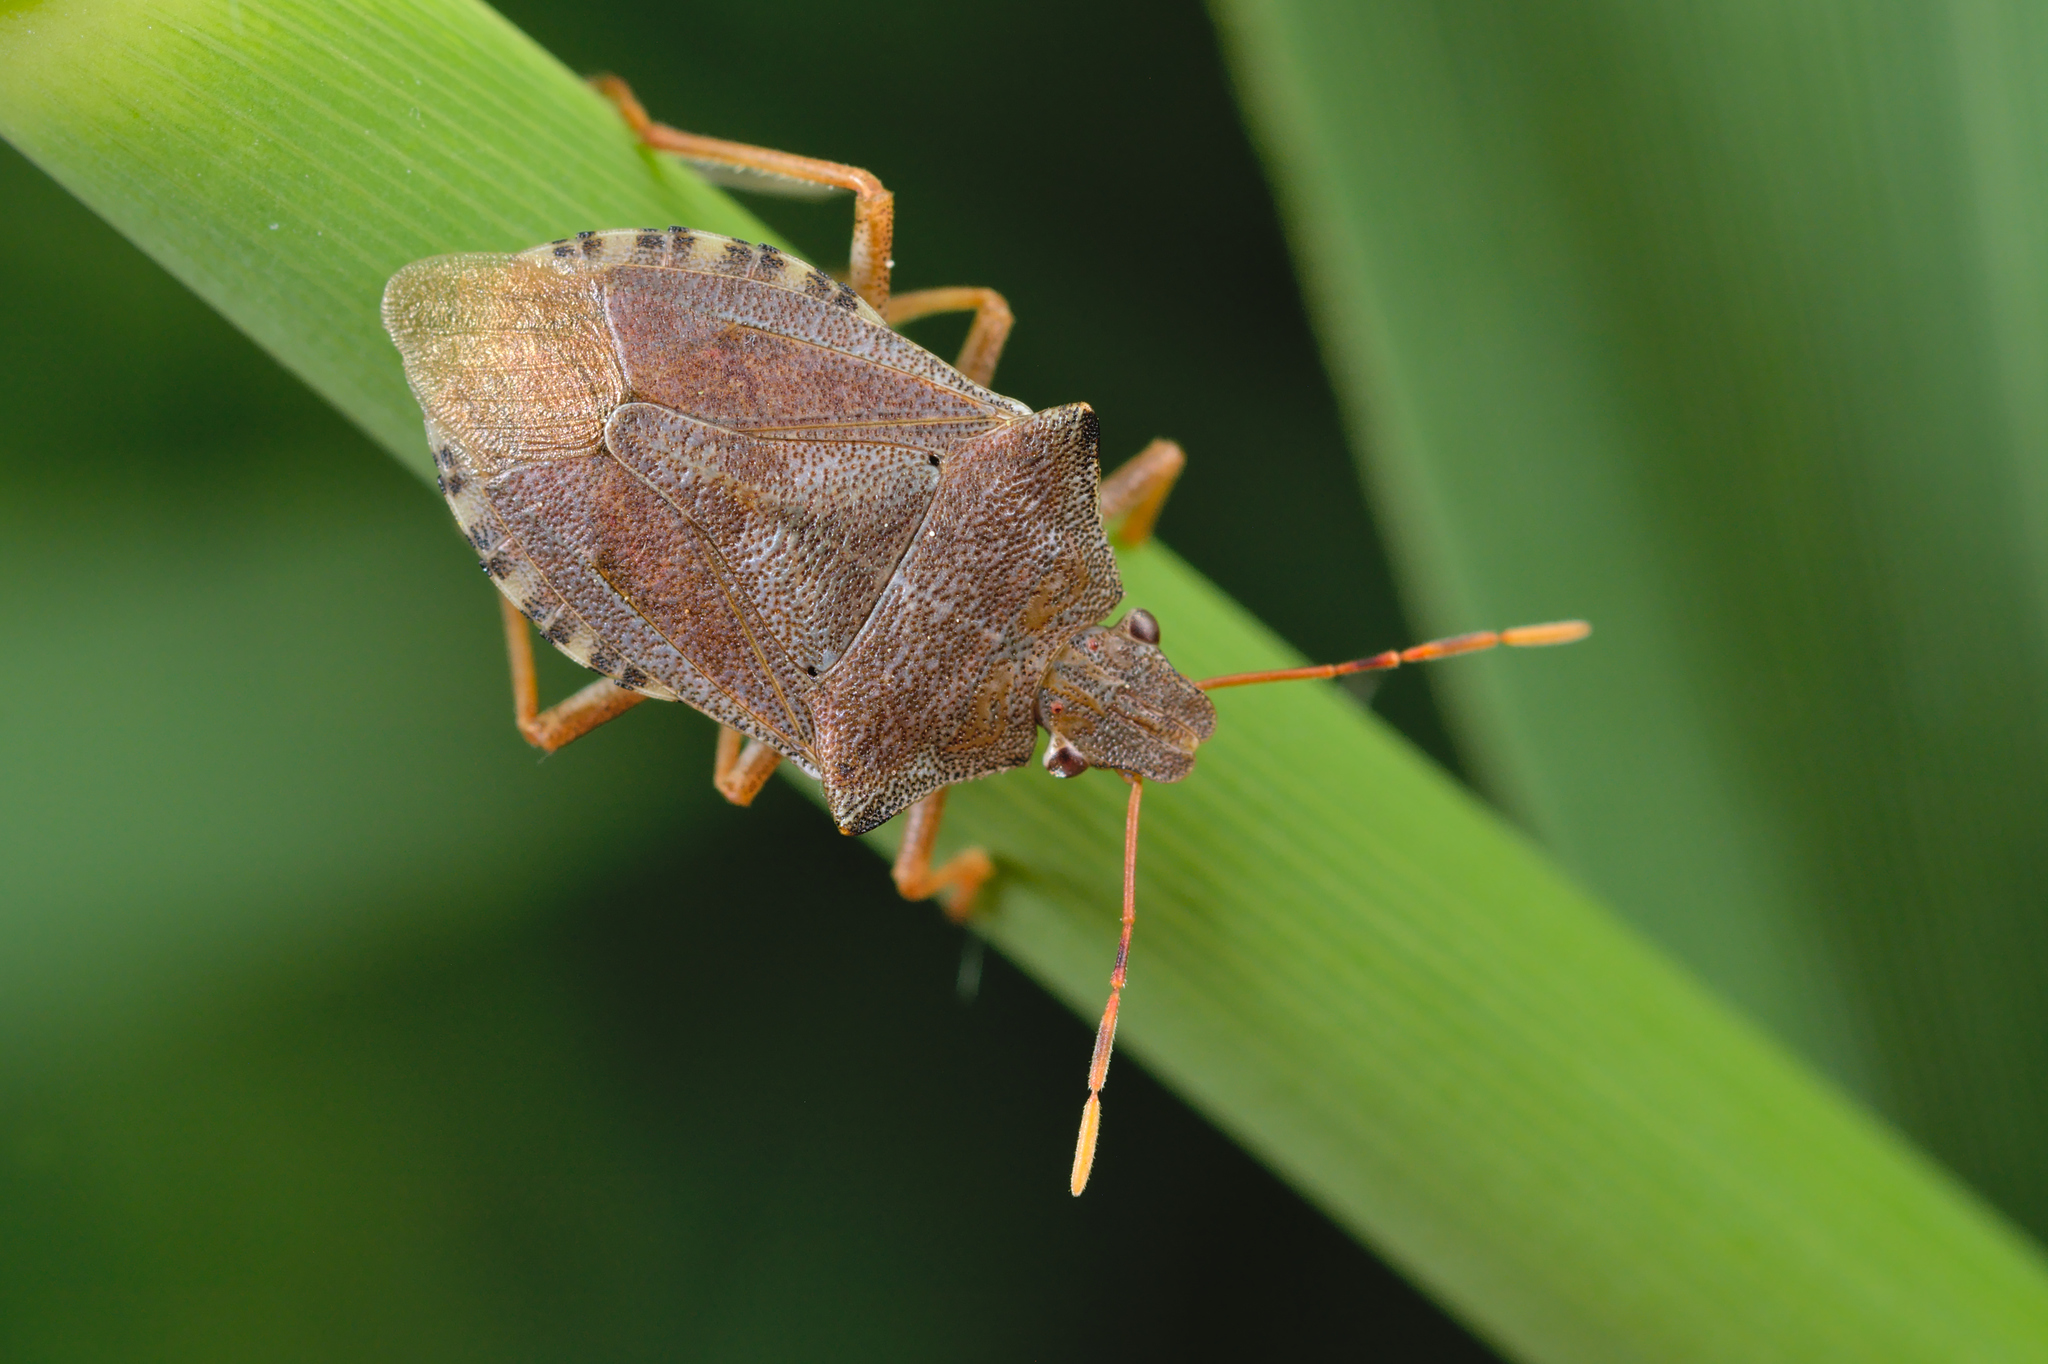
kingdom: Animalia
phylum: Arthropoda
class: Insecta
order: Hemiptera
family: Pentatomidae
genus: Arma
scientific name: Arma custos
